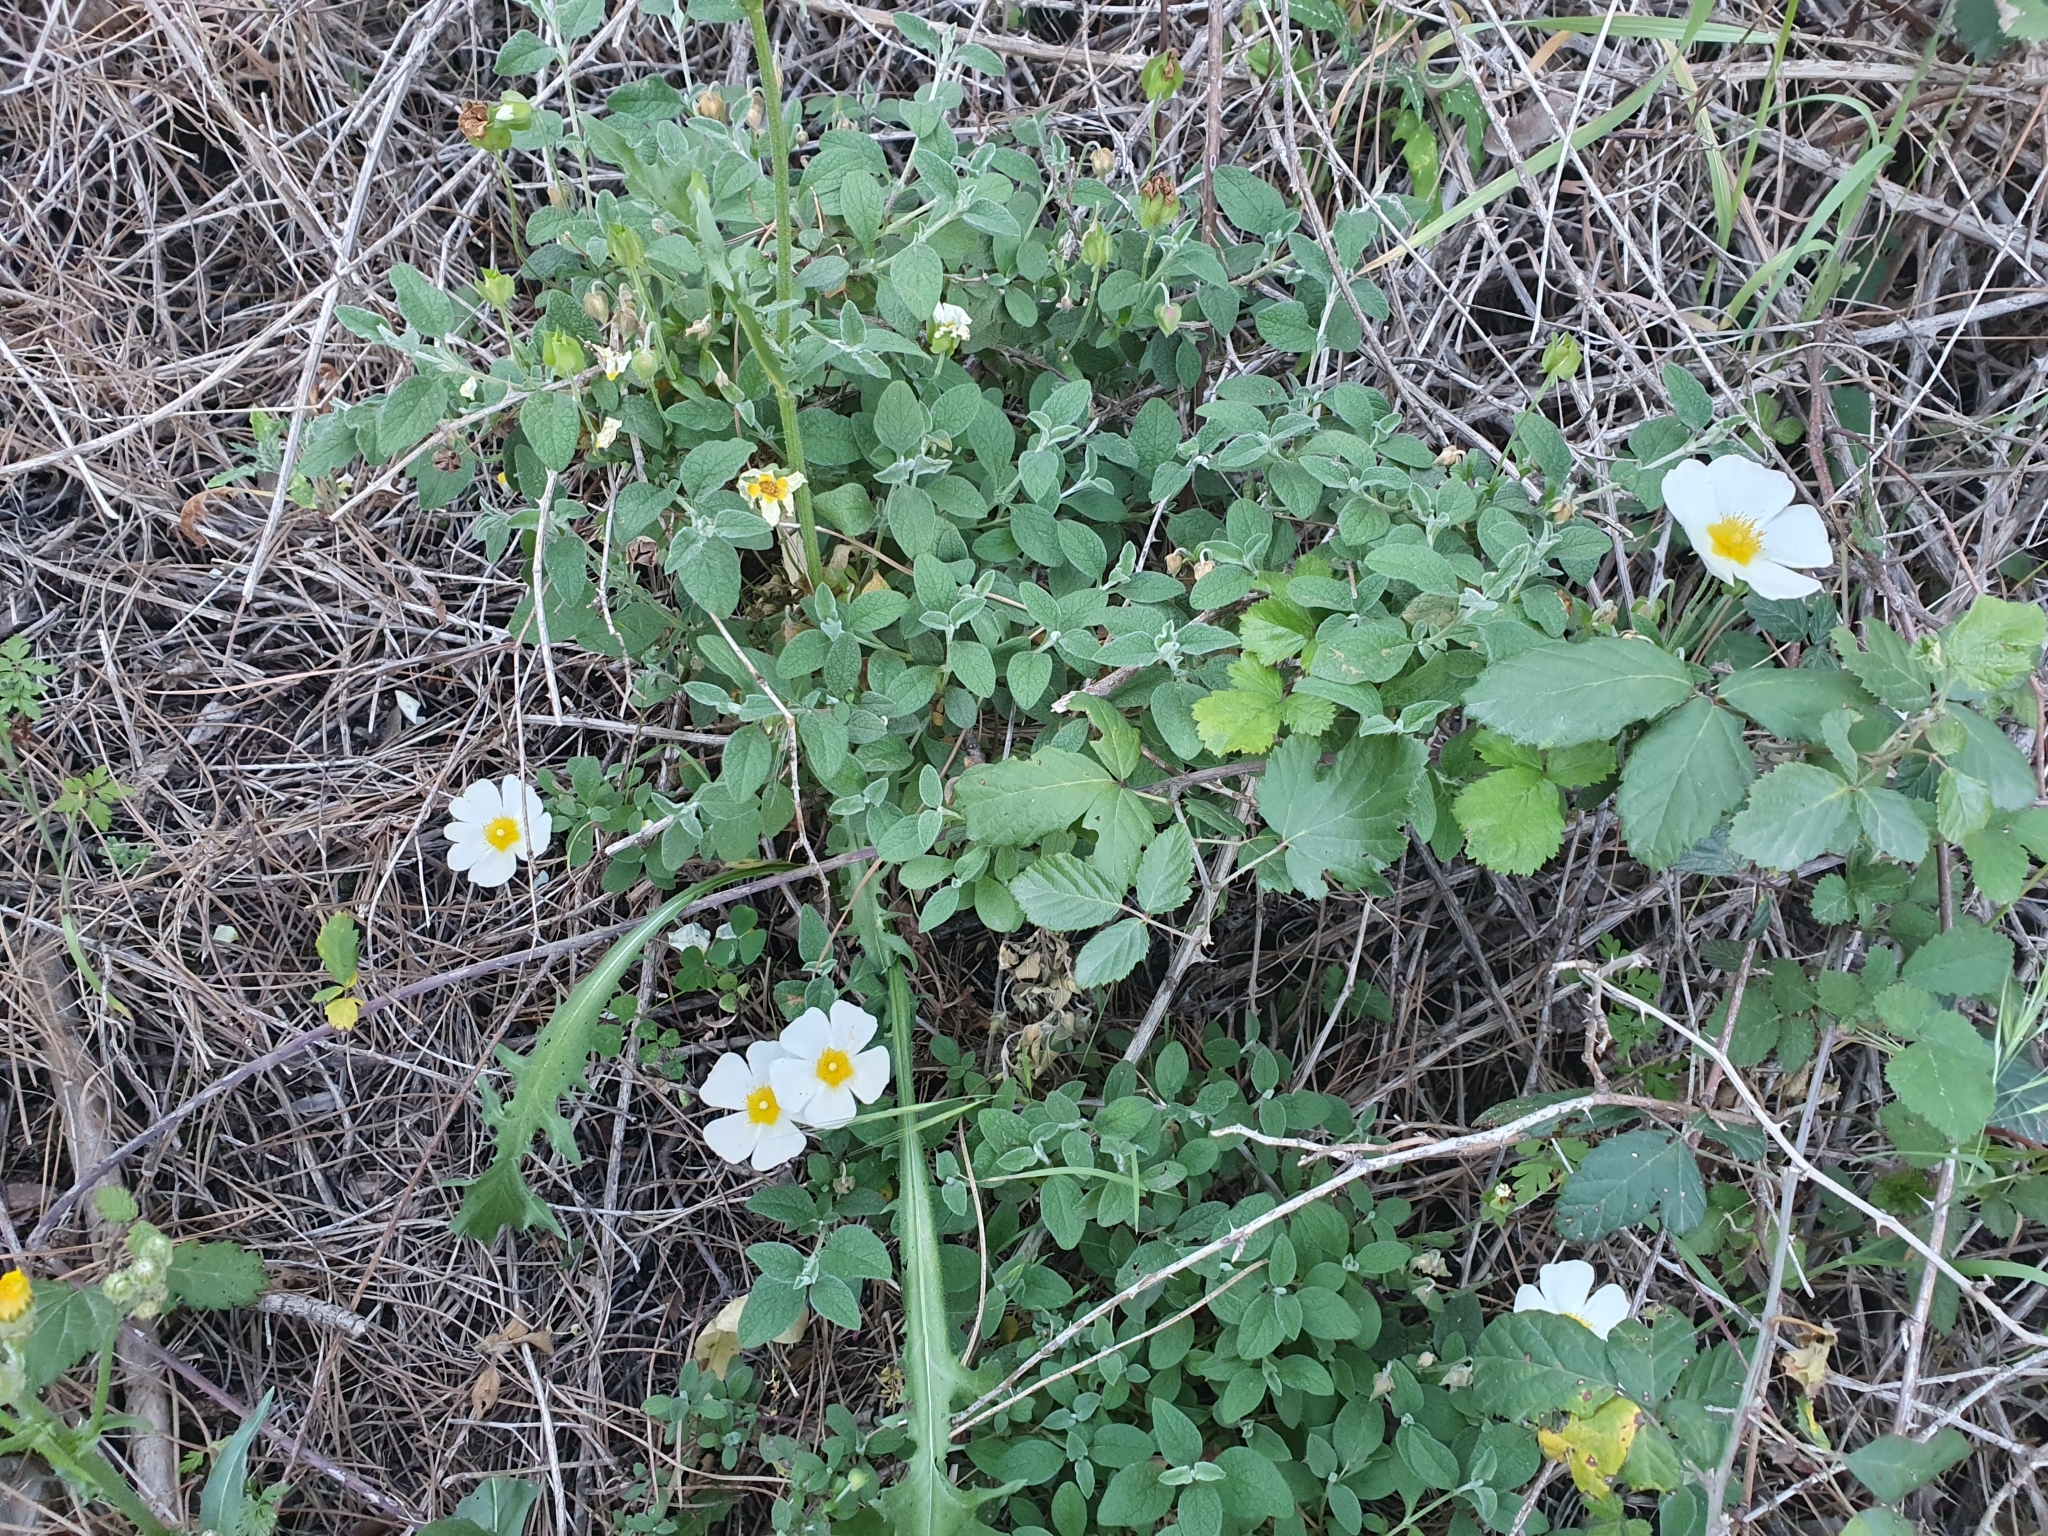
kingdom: Plantae
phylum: Tracheophyta
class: Magnoliopsida
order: Malvales
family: Cistaceae
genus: Cistus
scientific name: Cistus salviifolius
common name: Salvia cistus
